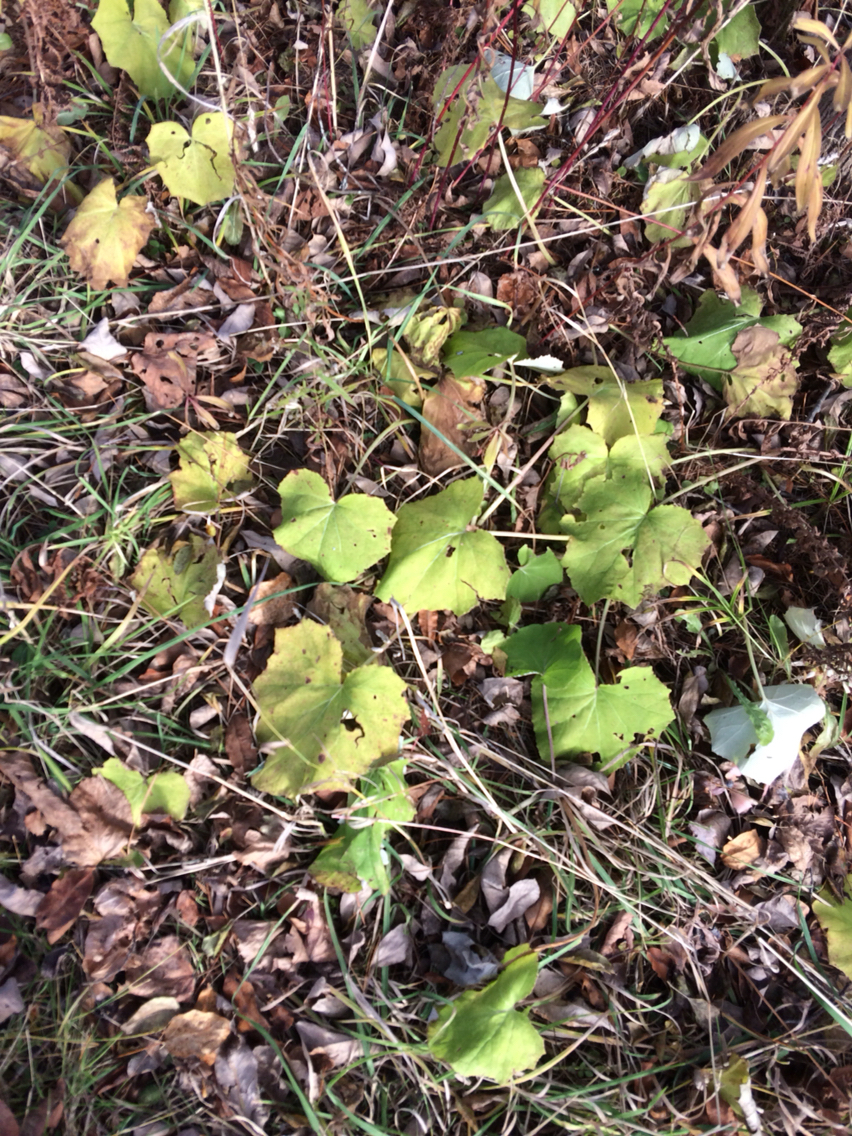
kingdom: Plantae
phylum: Tracheophyta
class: Magnoliopsida
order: Asterales
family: Asteraceae
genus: Tussilago
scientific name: Tussilago farfara
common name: Coltsfoot
